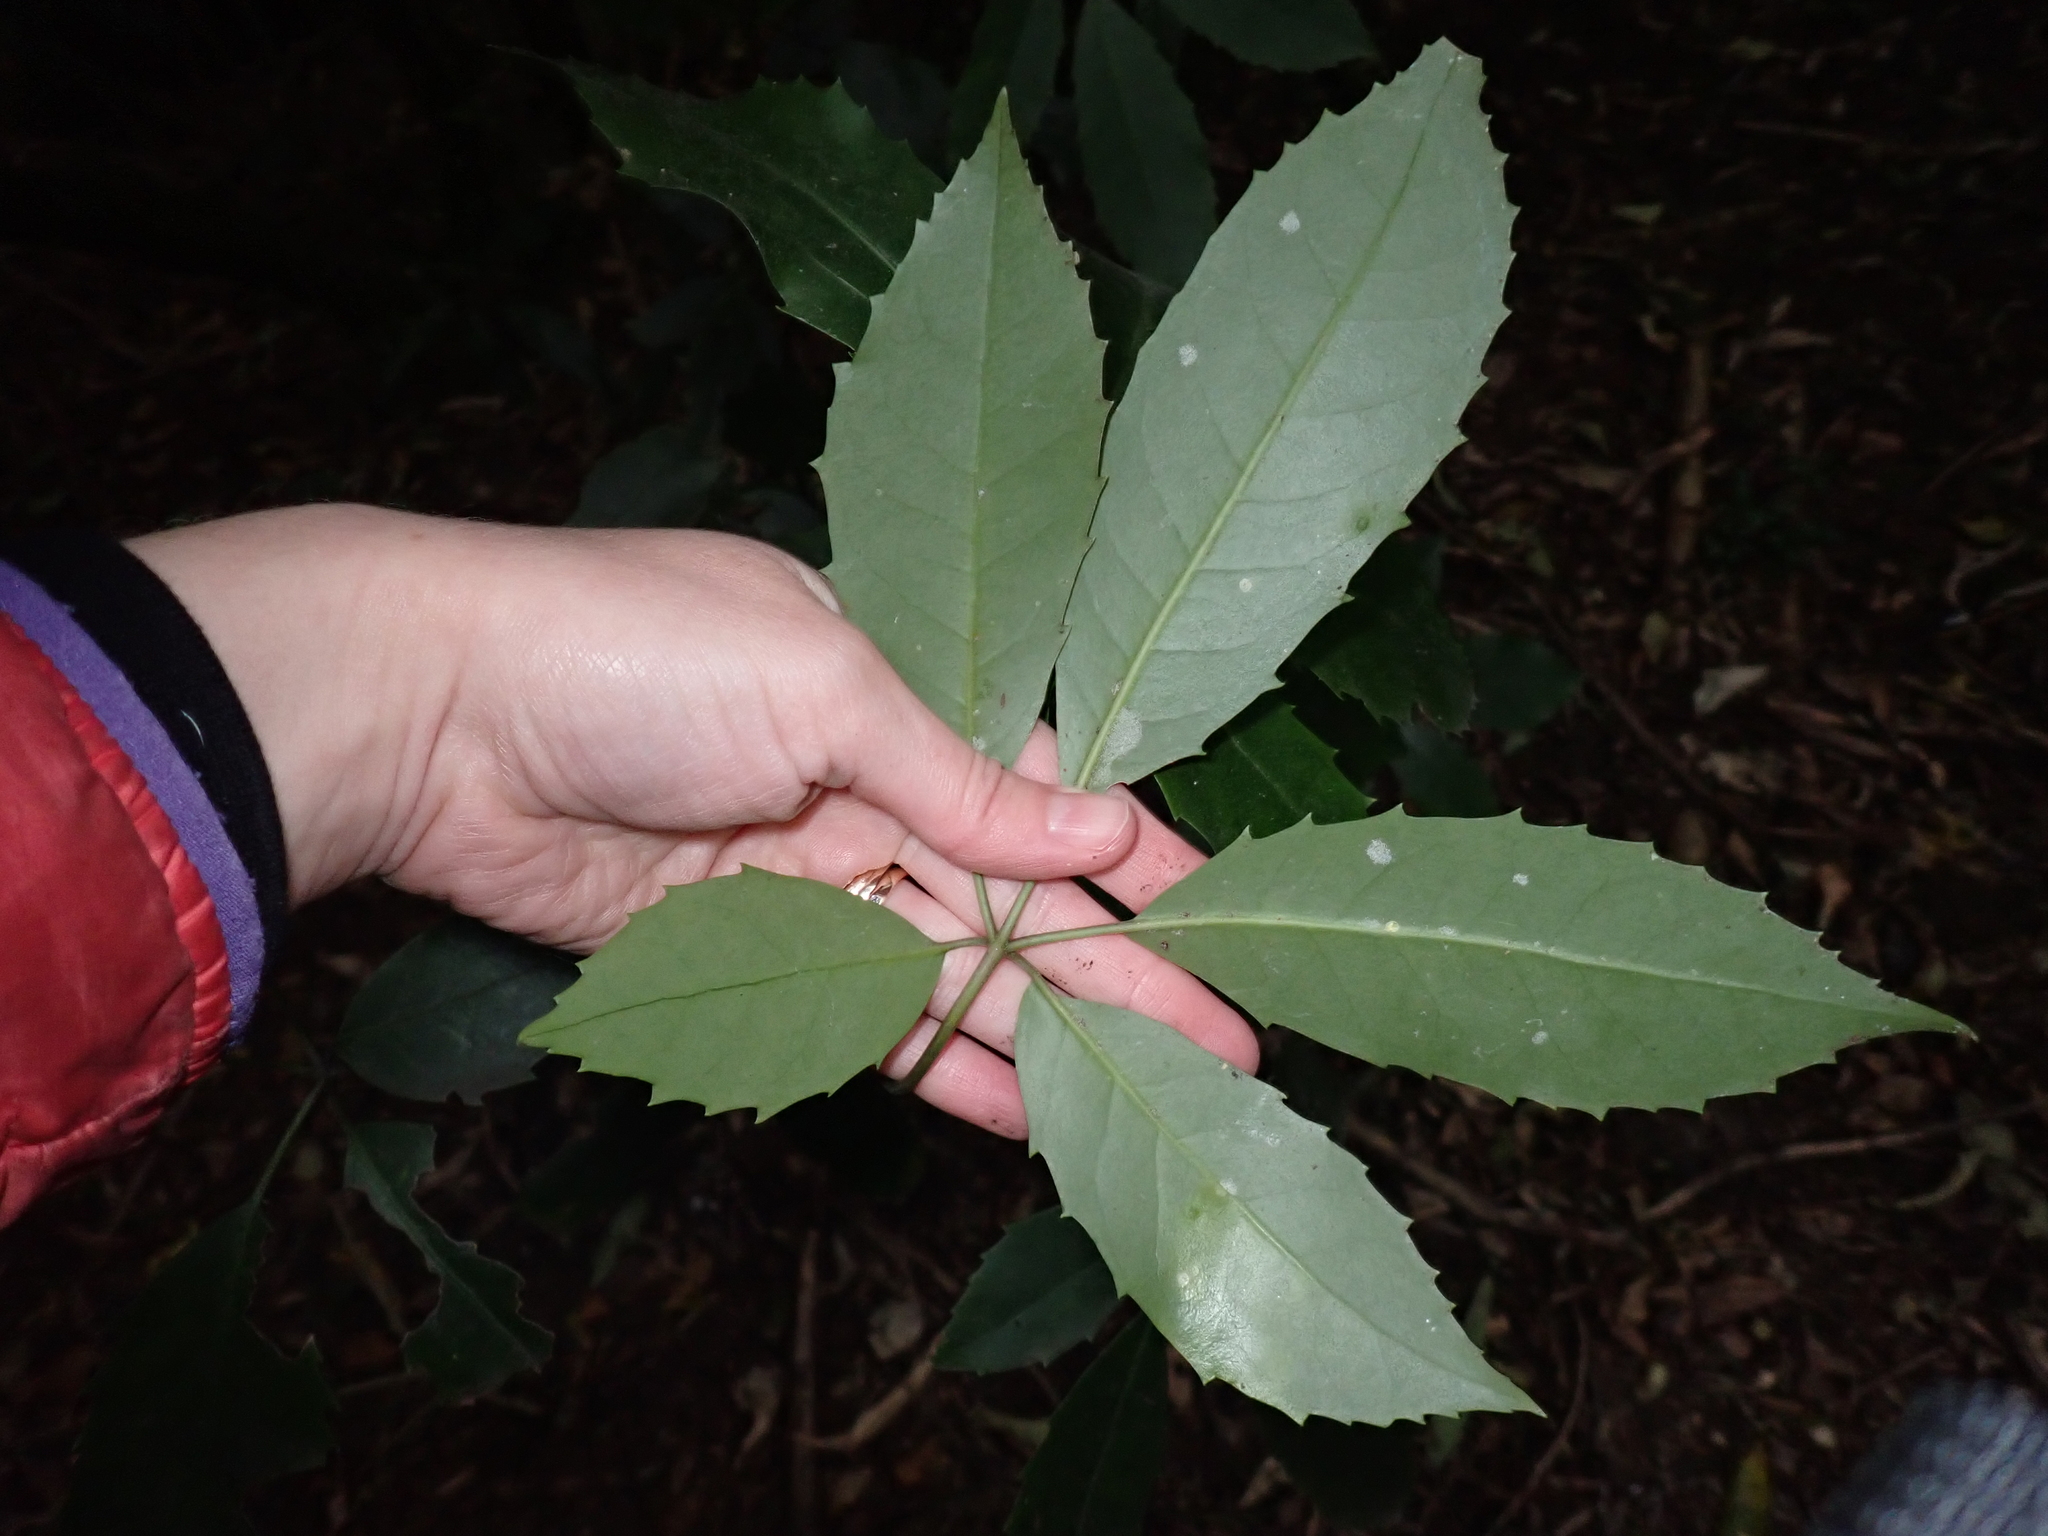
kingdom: Plantae
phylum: Tracheophyta
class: Magnoliopsida
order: Apiales
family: Araliaceae
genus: Neopanax
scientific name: Neopanax arboreus
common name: Five-fingers
